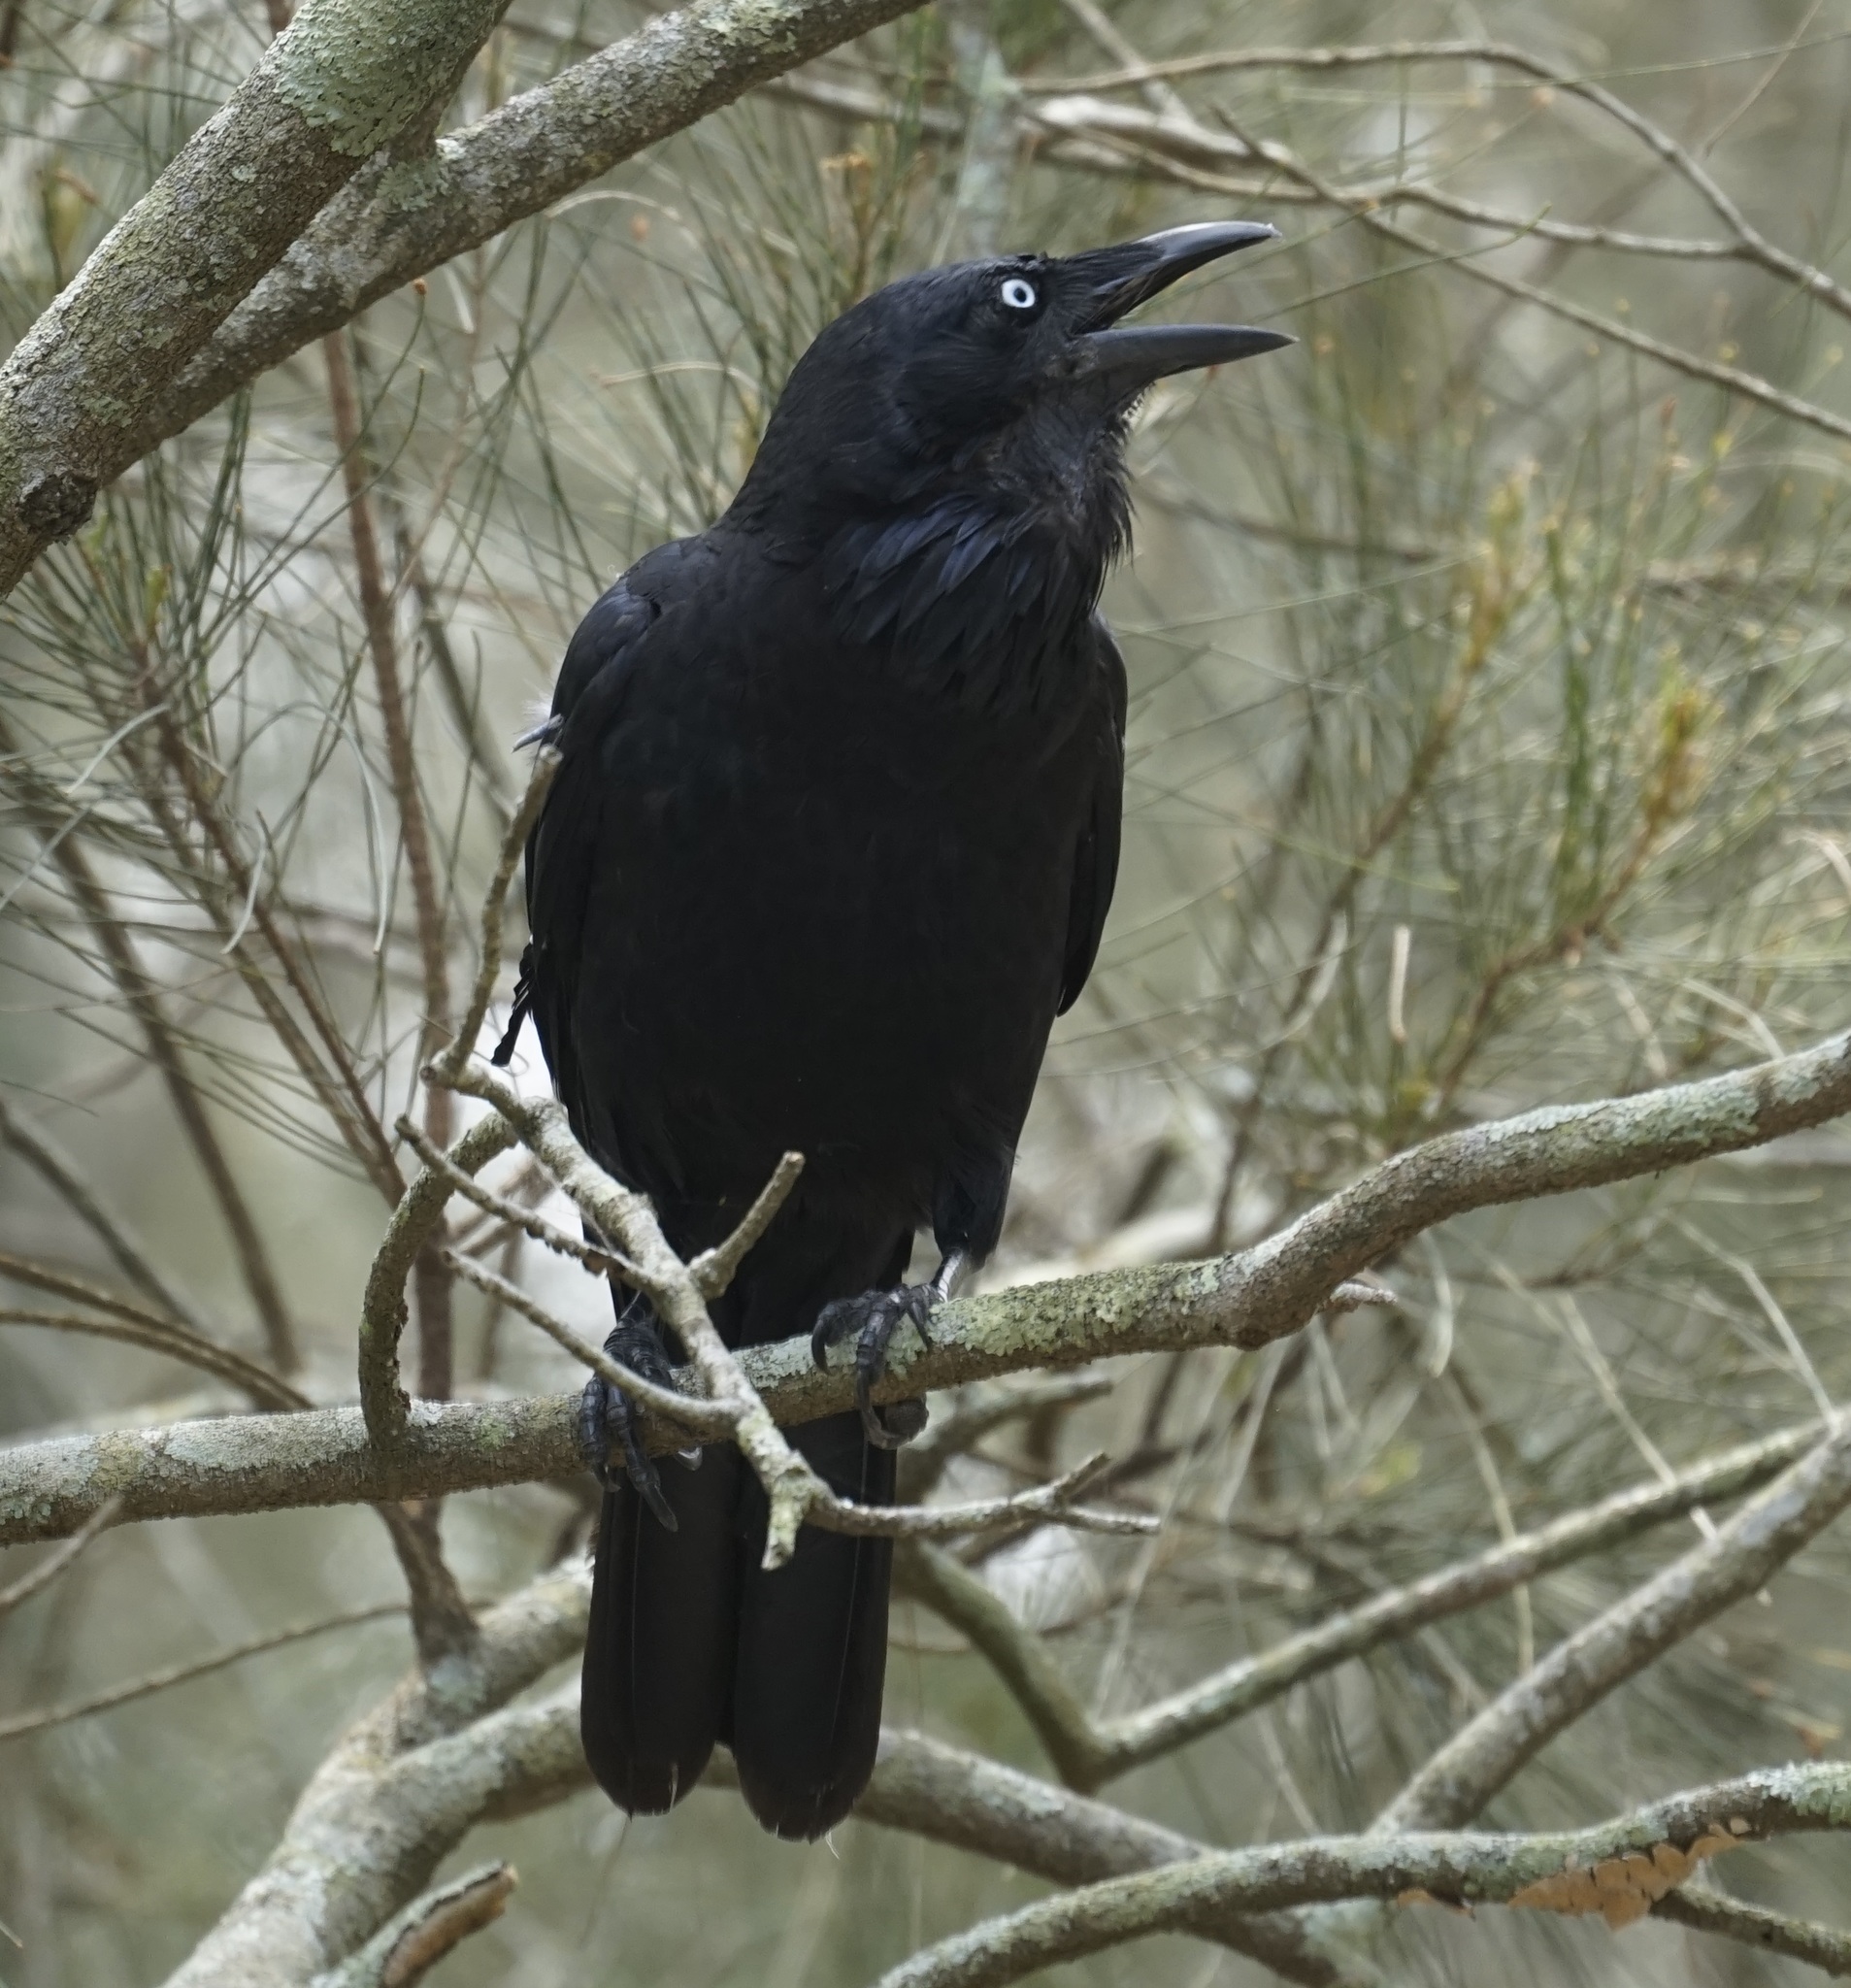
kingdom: Animalia
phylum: Chordata
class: Aves
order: Passeriformes
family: Corvidae
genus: Corvus
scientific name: Corvus coronoides
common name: Australian raven
